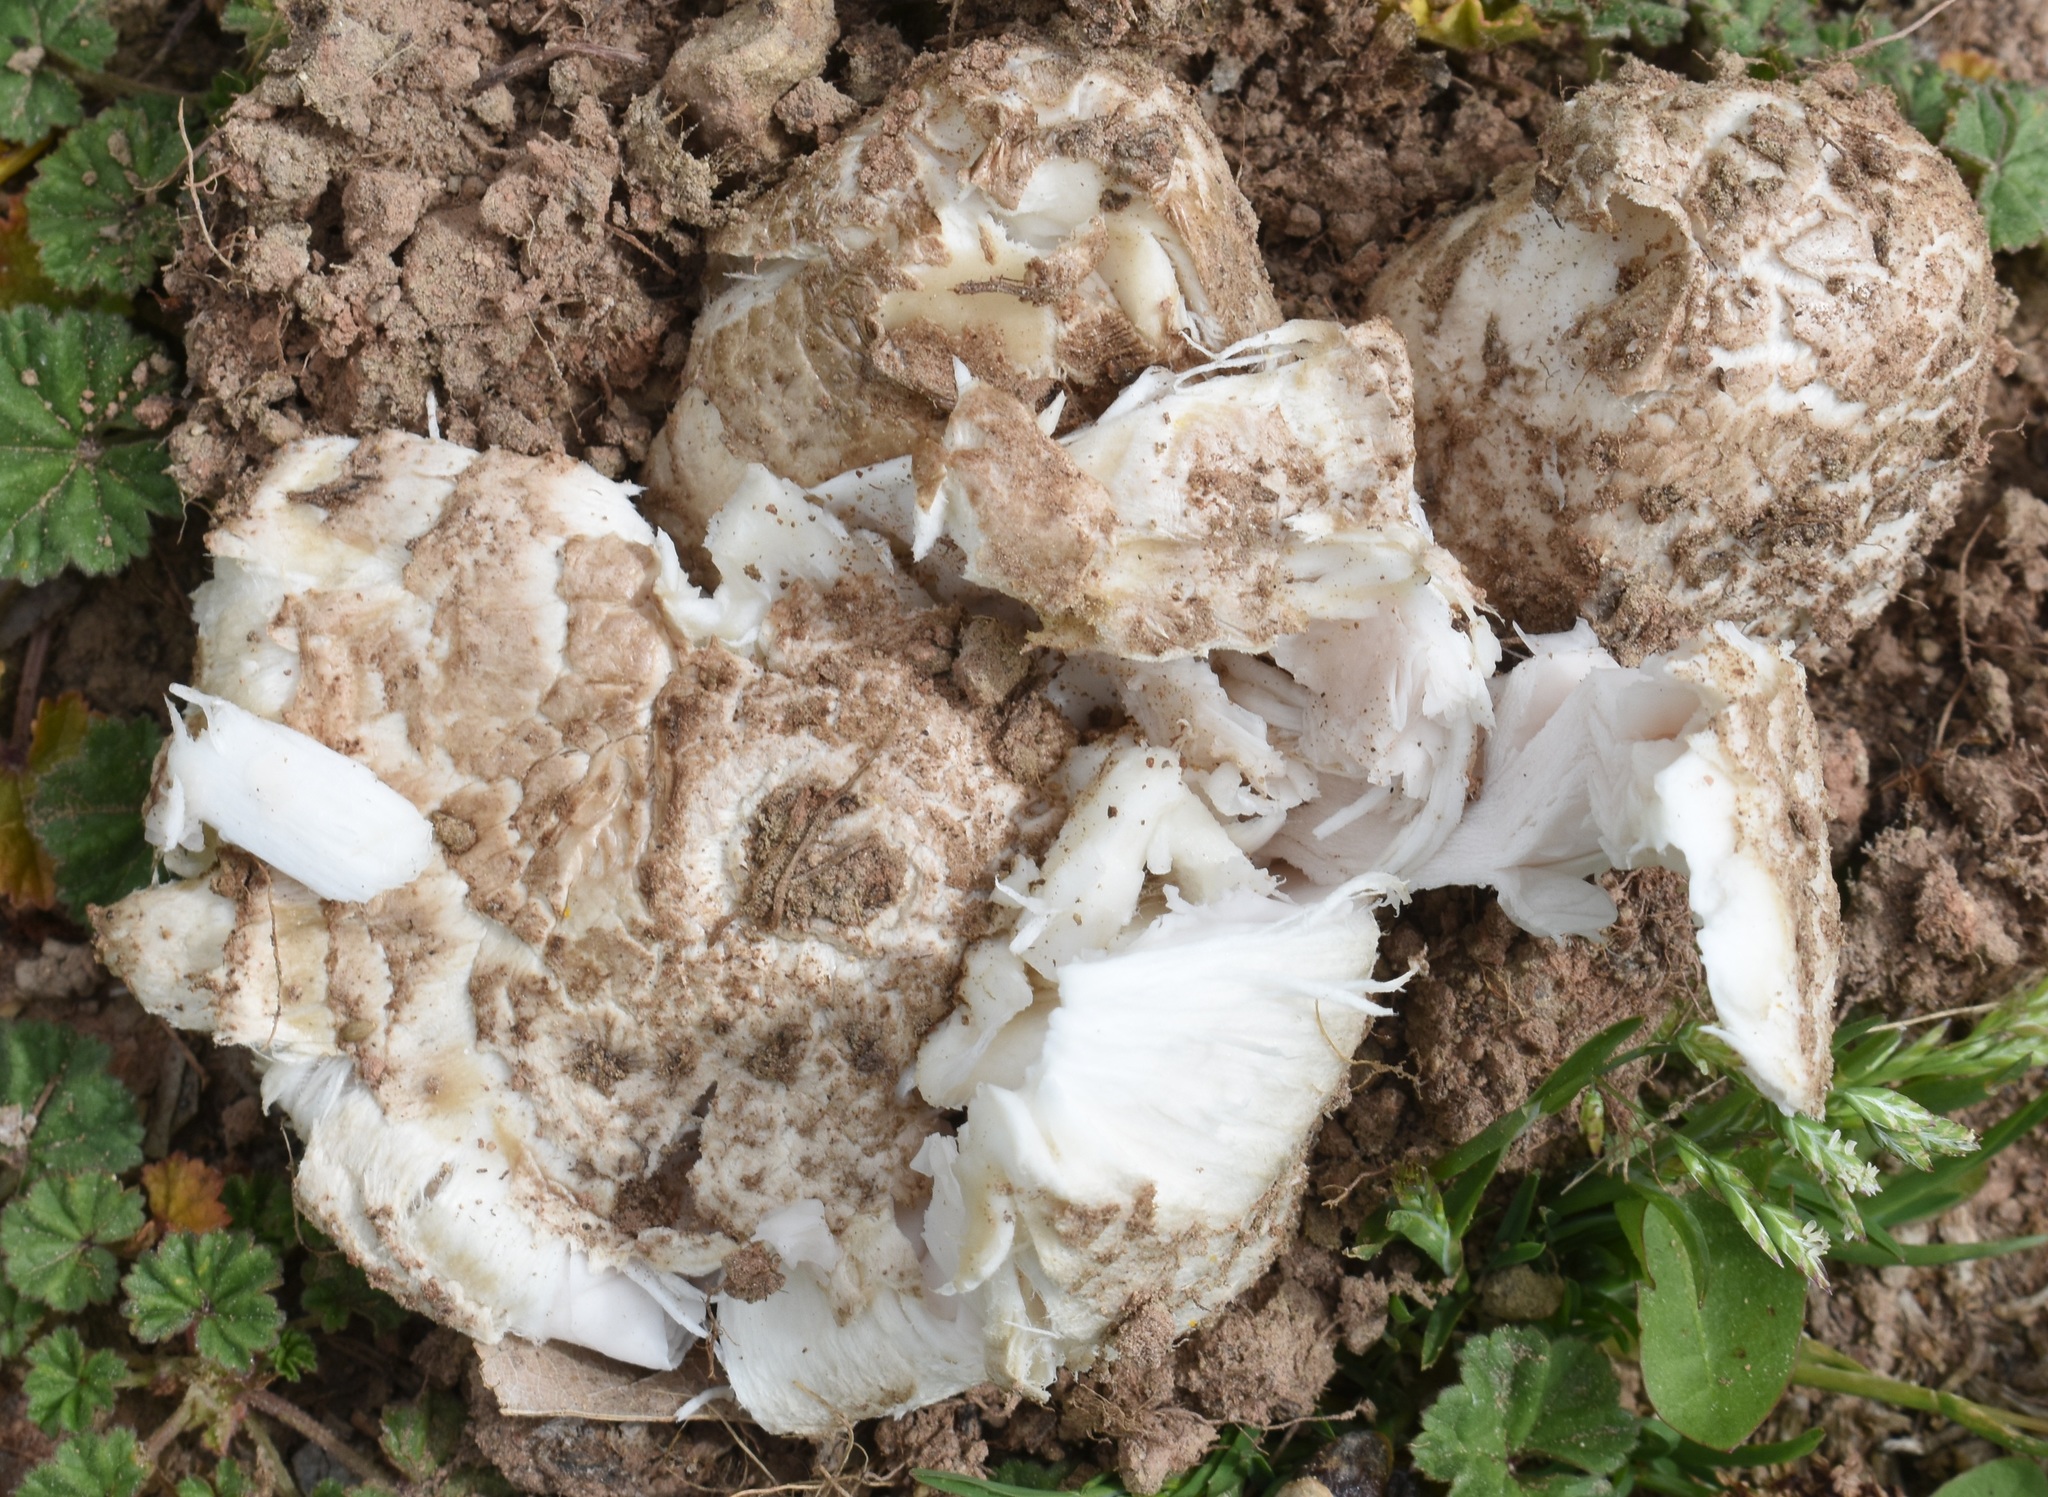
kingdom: Fungi
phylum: Basidiomycota
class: Agaricomycetes
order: Agaricales
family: Agaricaceae
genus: Coprinus
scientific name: Coprinus comatus
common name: Lawyer's wig
